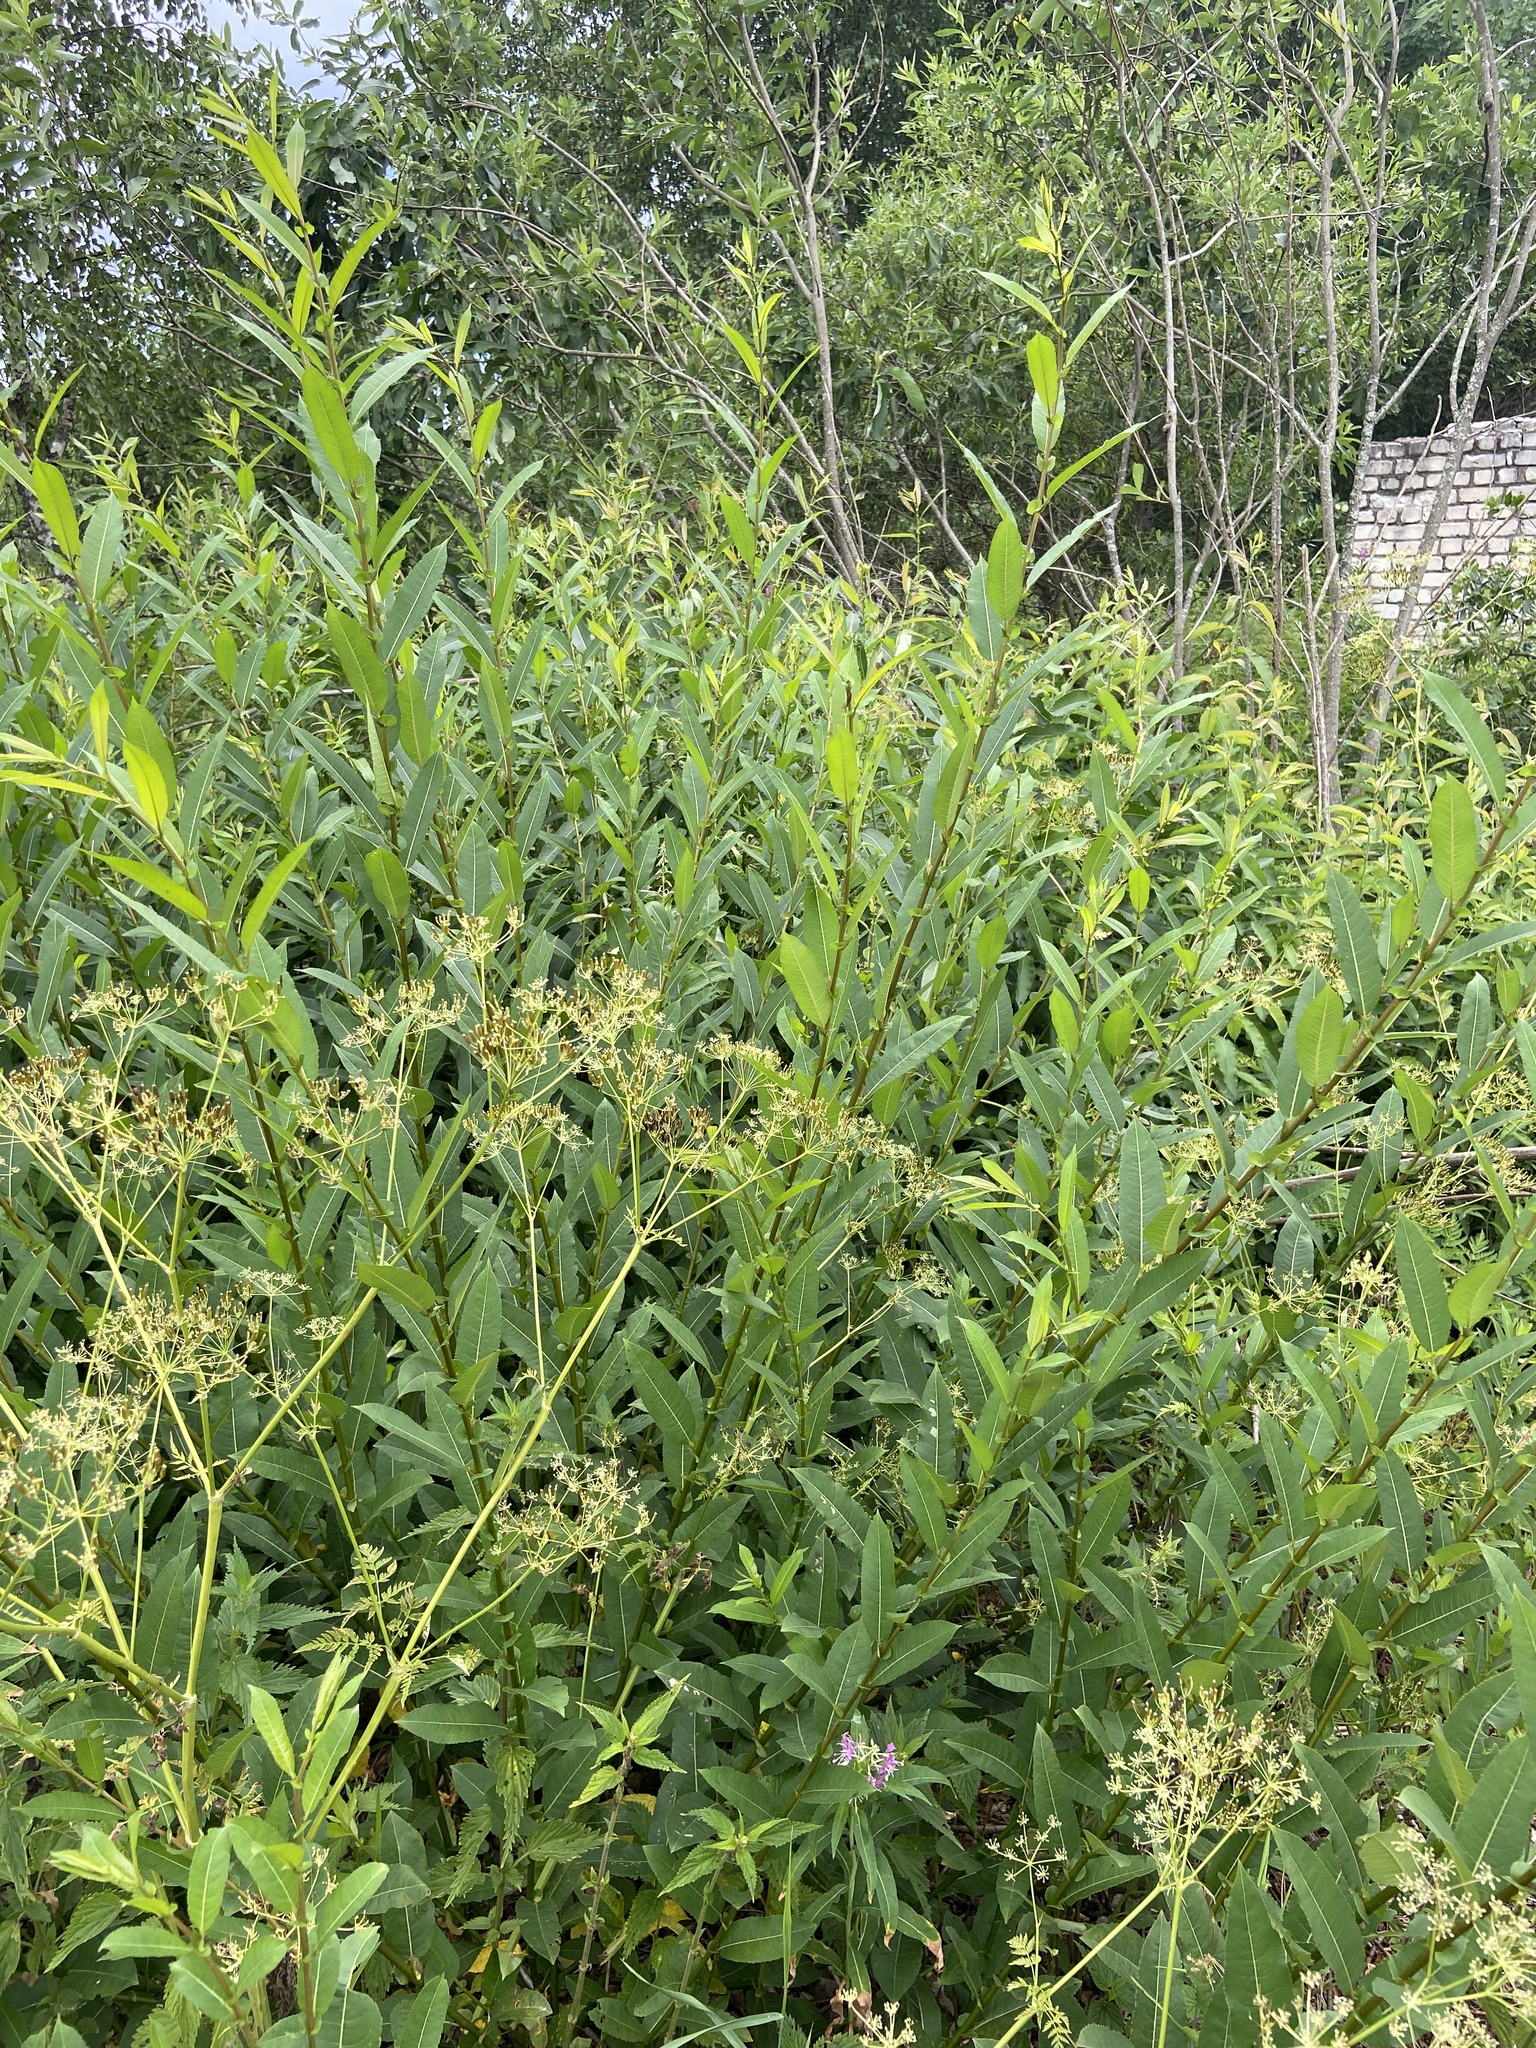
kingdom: Plantae
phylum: Tracheophyta
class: Magnoliopsida
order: Malpighiales
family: Salicaceae
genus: Salix
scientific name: Salix triandra
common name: Almond willow
